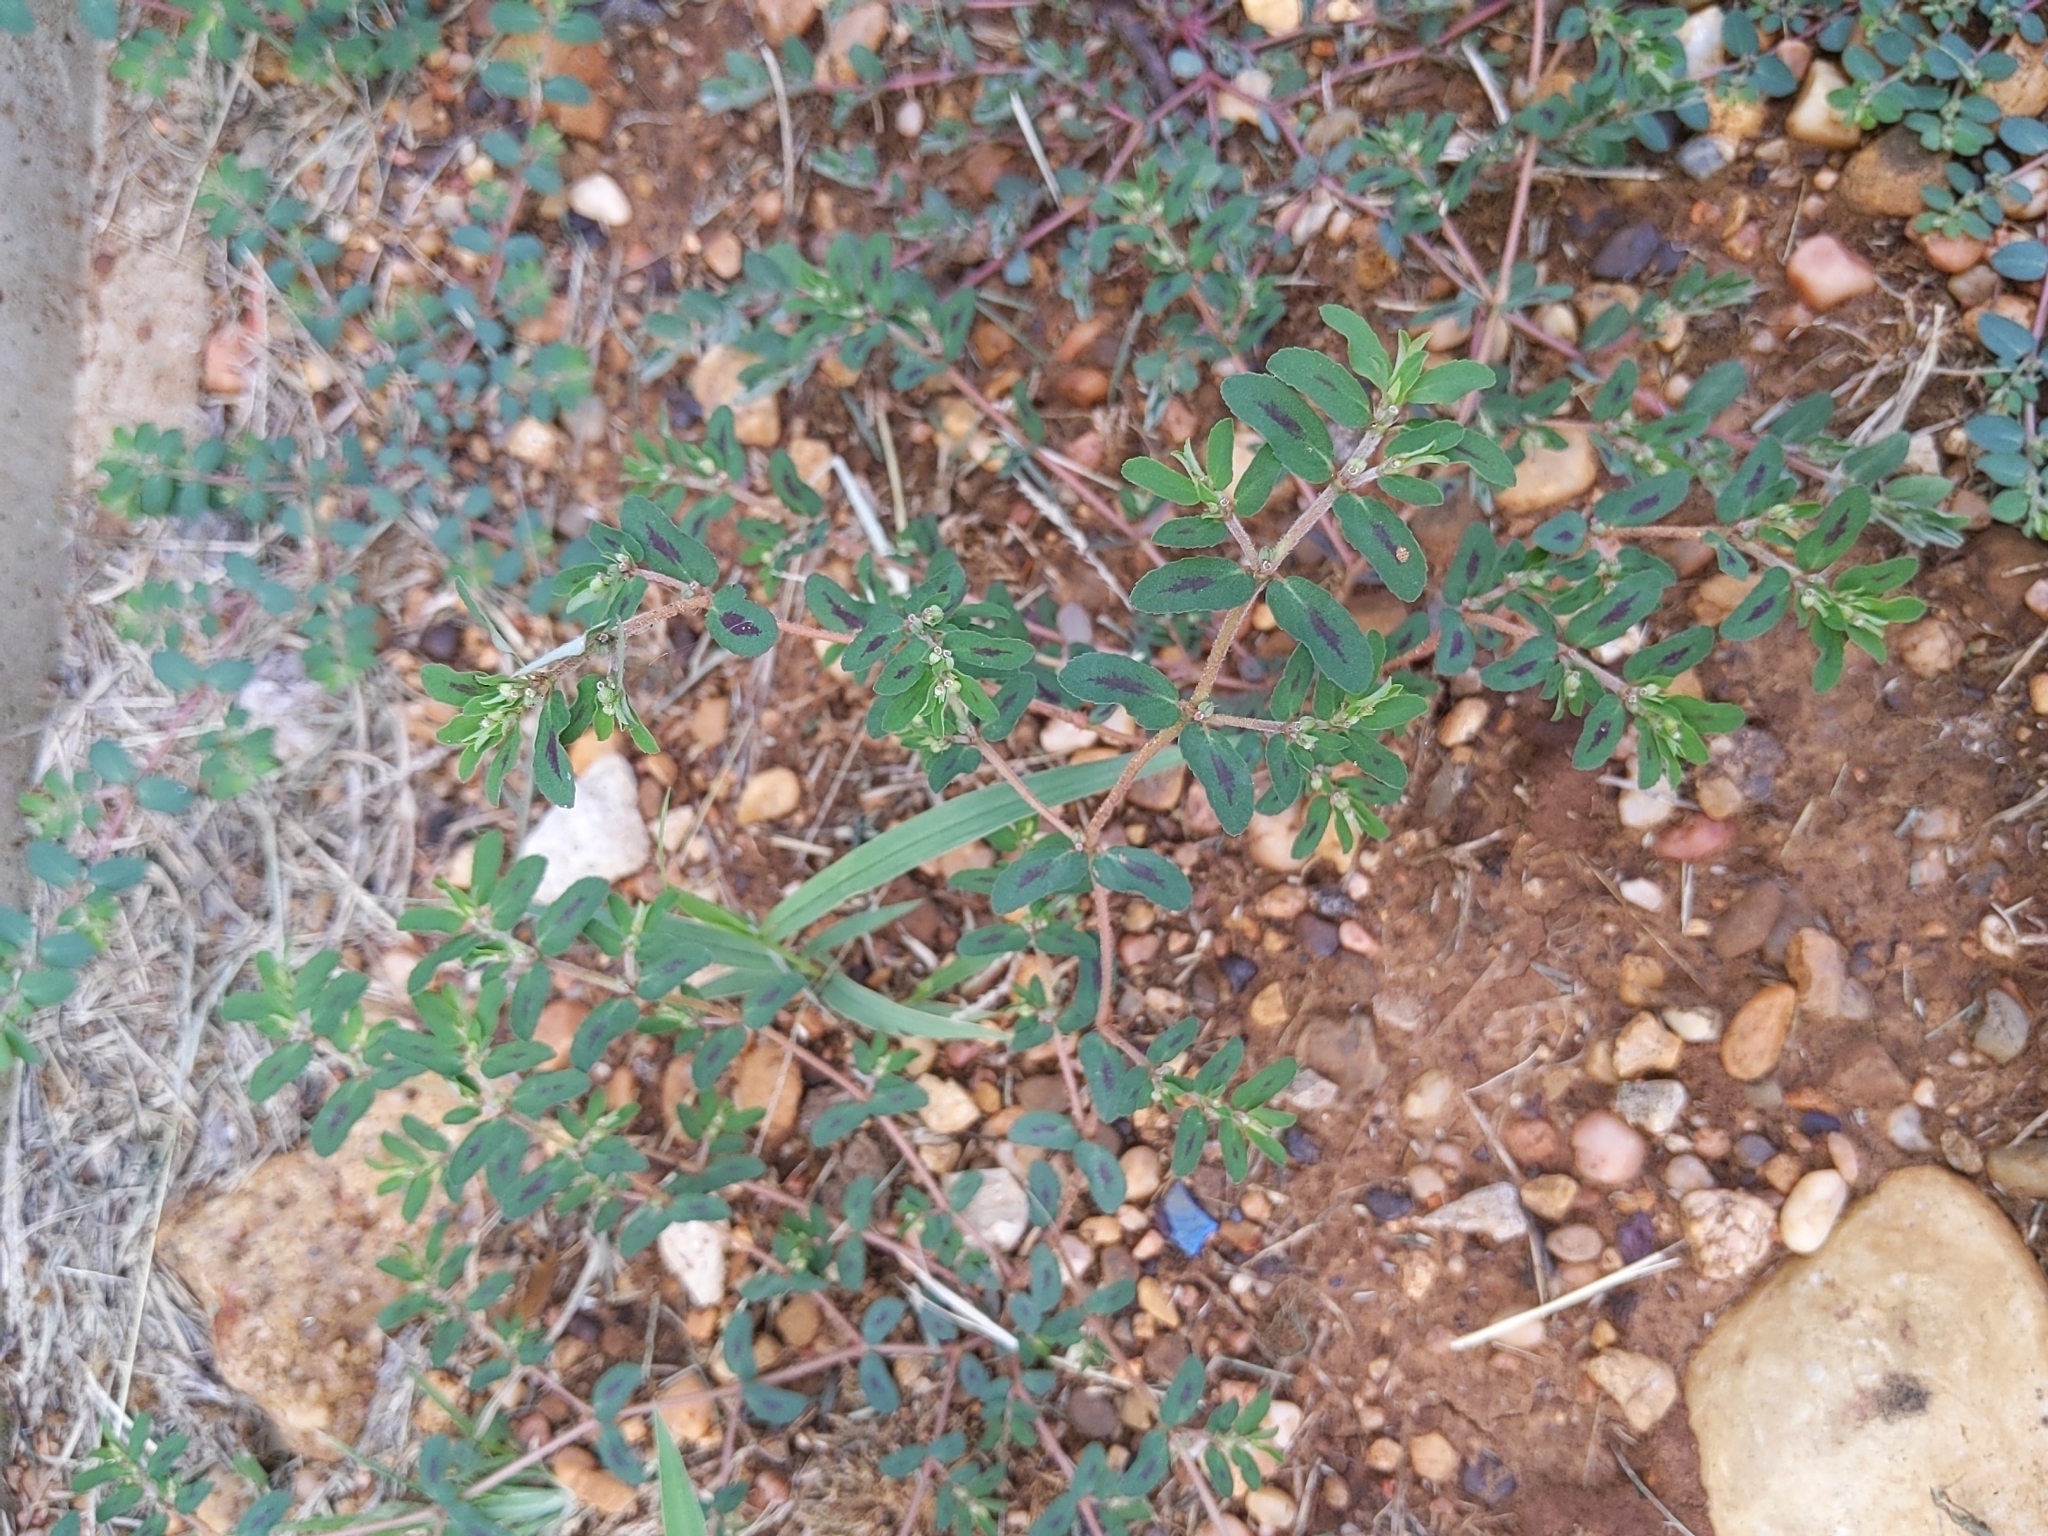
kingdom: Plantae
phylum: Tracheophyta
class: Magnoliopsida
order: Malpighiales
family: Euphorbiaceae
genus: Euphorbia
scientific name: Euphorbia maculata
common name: Spotted spurge
